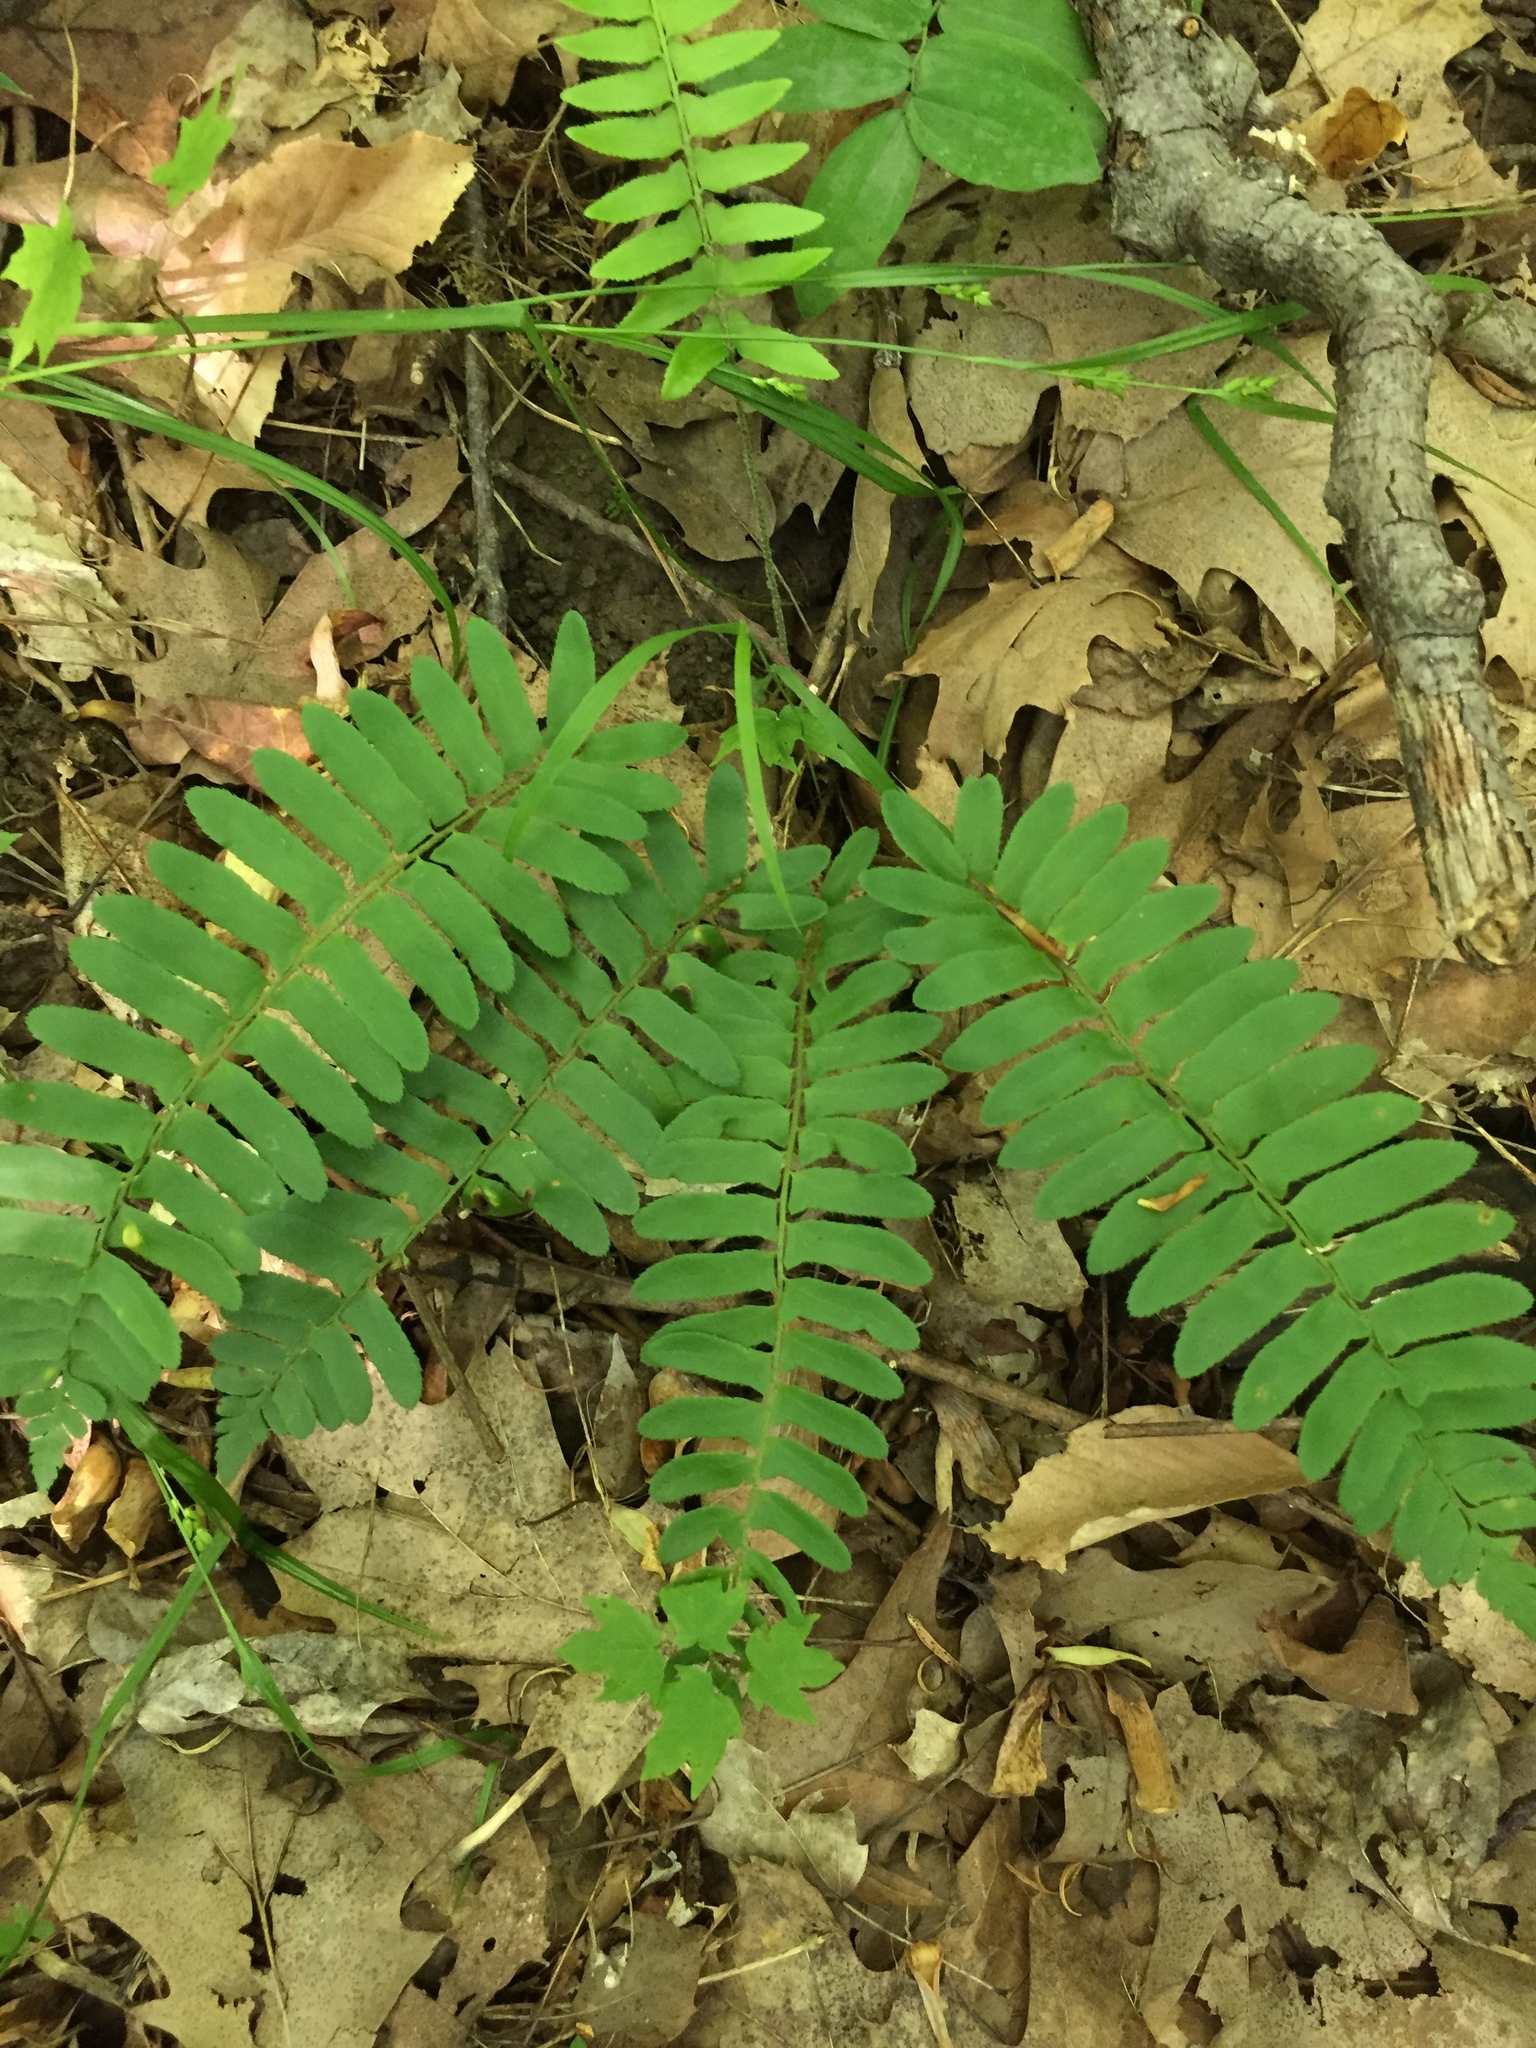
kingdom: Plantae
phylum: Tracheophyta
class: Polypodiopsida
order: Polypodiales
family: Dryopteridaceae
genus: Polystichum
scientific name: Polystichum acrostichoides
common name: Christmas fern
